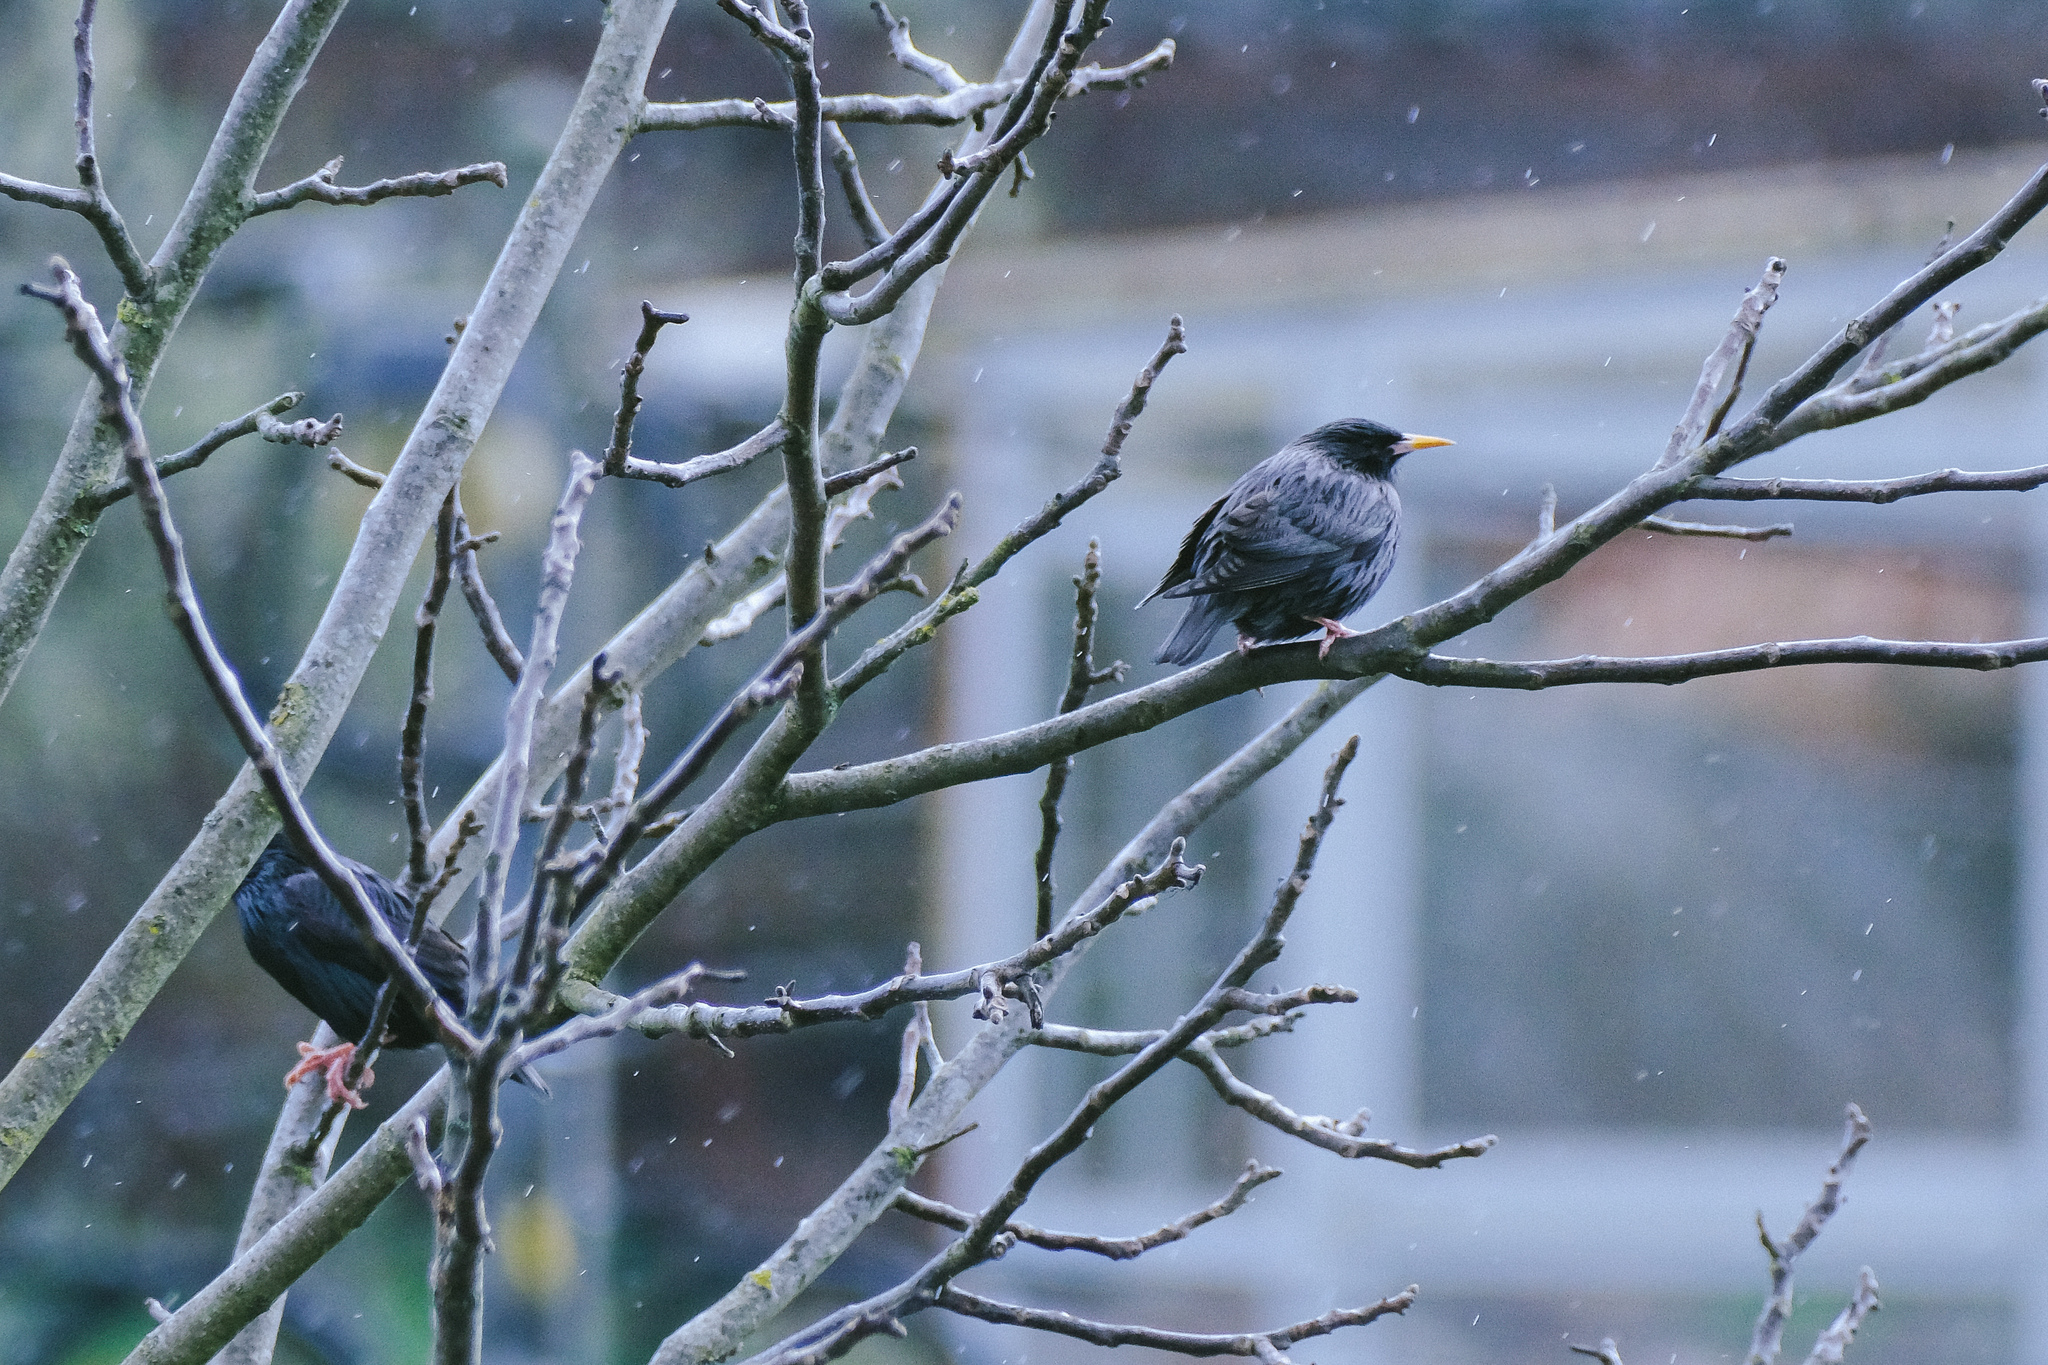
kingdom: Animalia
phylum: Chordata
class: Aves
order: Passeriformes
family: Sturnidae
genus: Sturnus
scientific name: Sturnus unicolor
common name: Spotless starling
